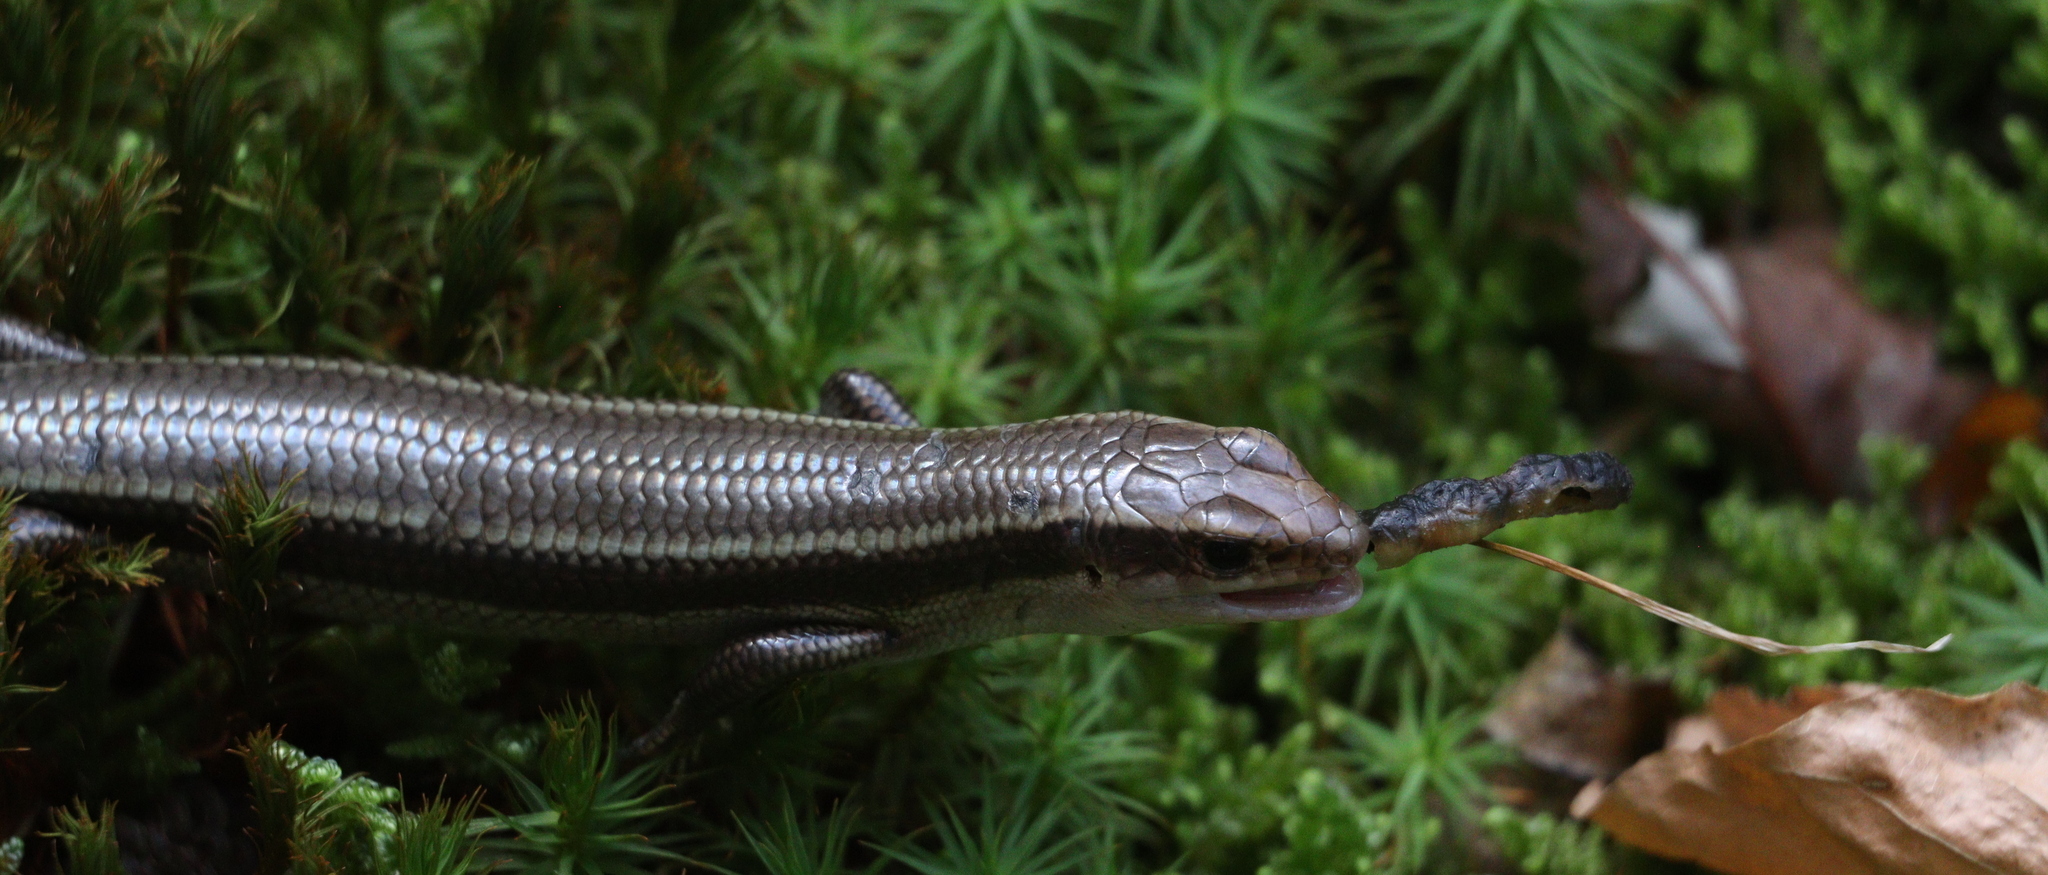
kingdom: Animalia
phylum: Chordata
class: Squamata
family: Scincidae
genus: Plestiodon
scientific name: Plestiodon finitimus
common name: Far eastern skink
